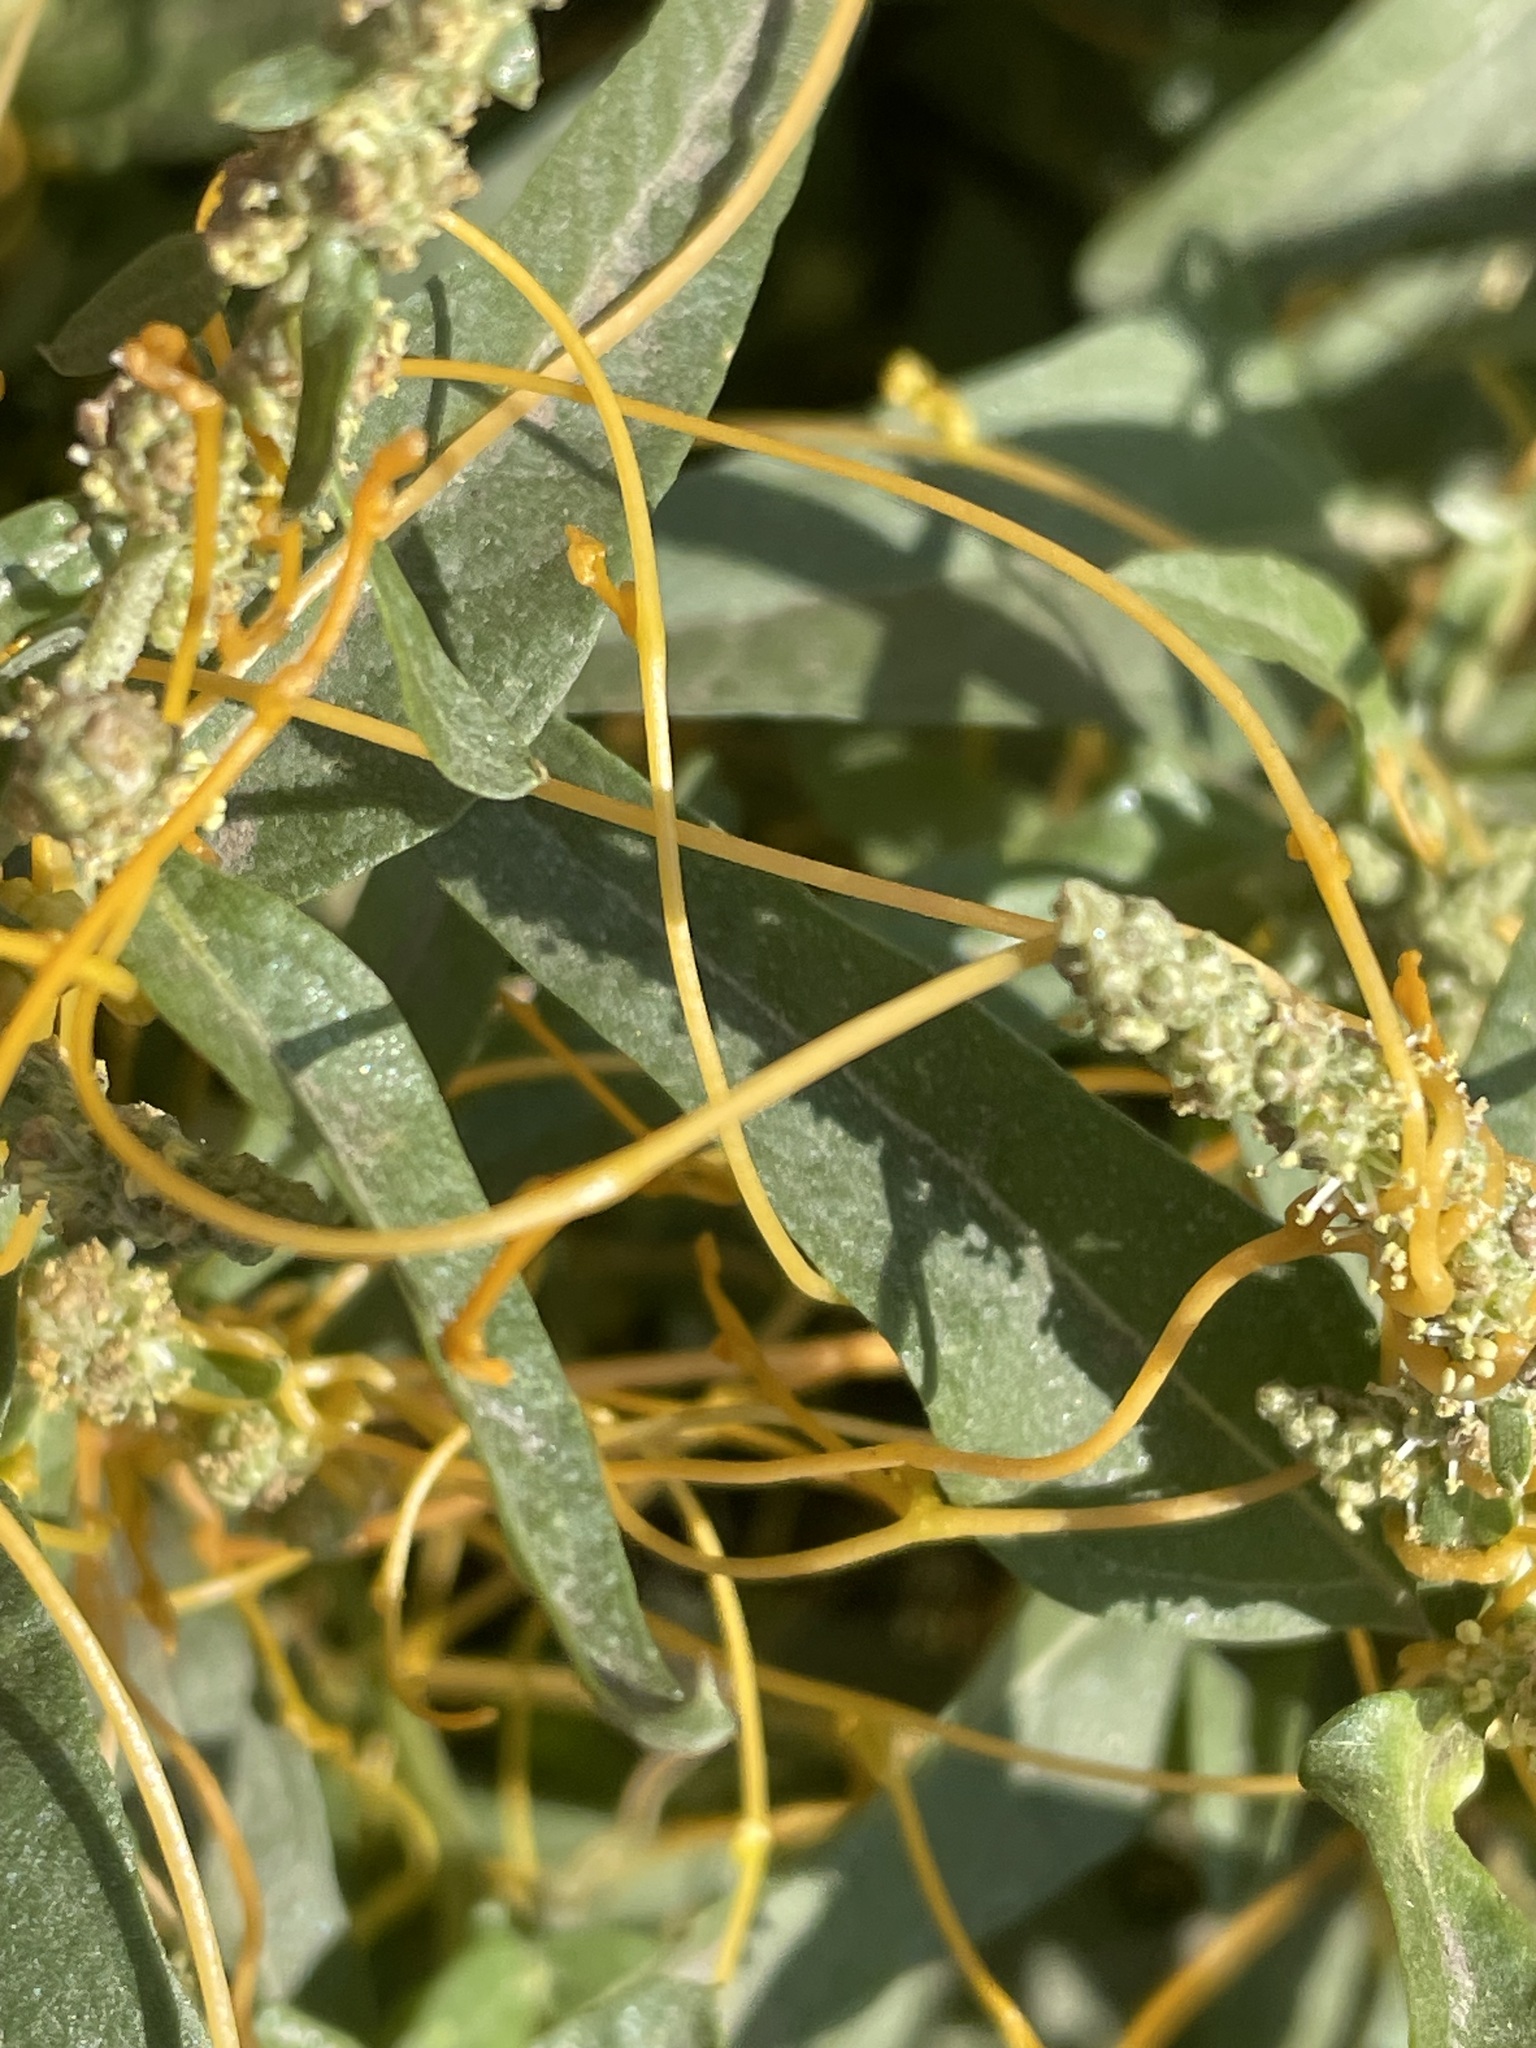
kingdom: Plantae
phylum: Tracheophyta
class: Magnoliopsida
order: Solanales
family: Convolvulaceae
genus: Cuscuta
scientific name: Cuscuta campestris
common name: Yellow dodder
